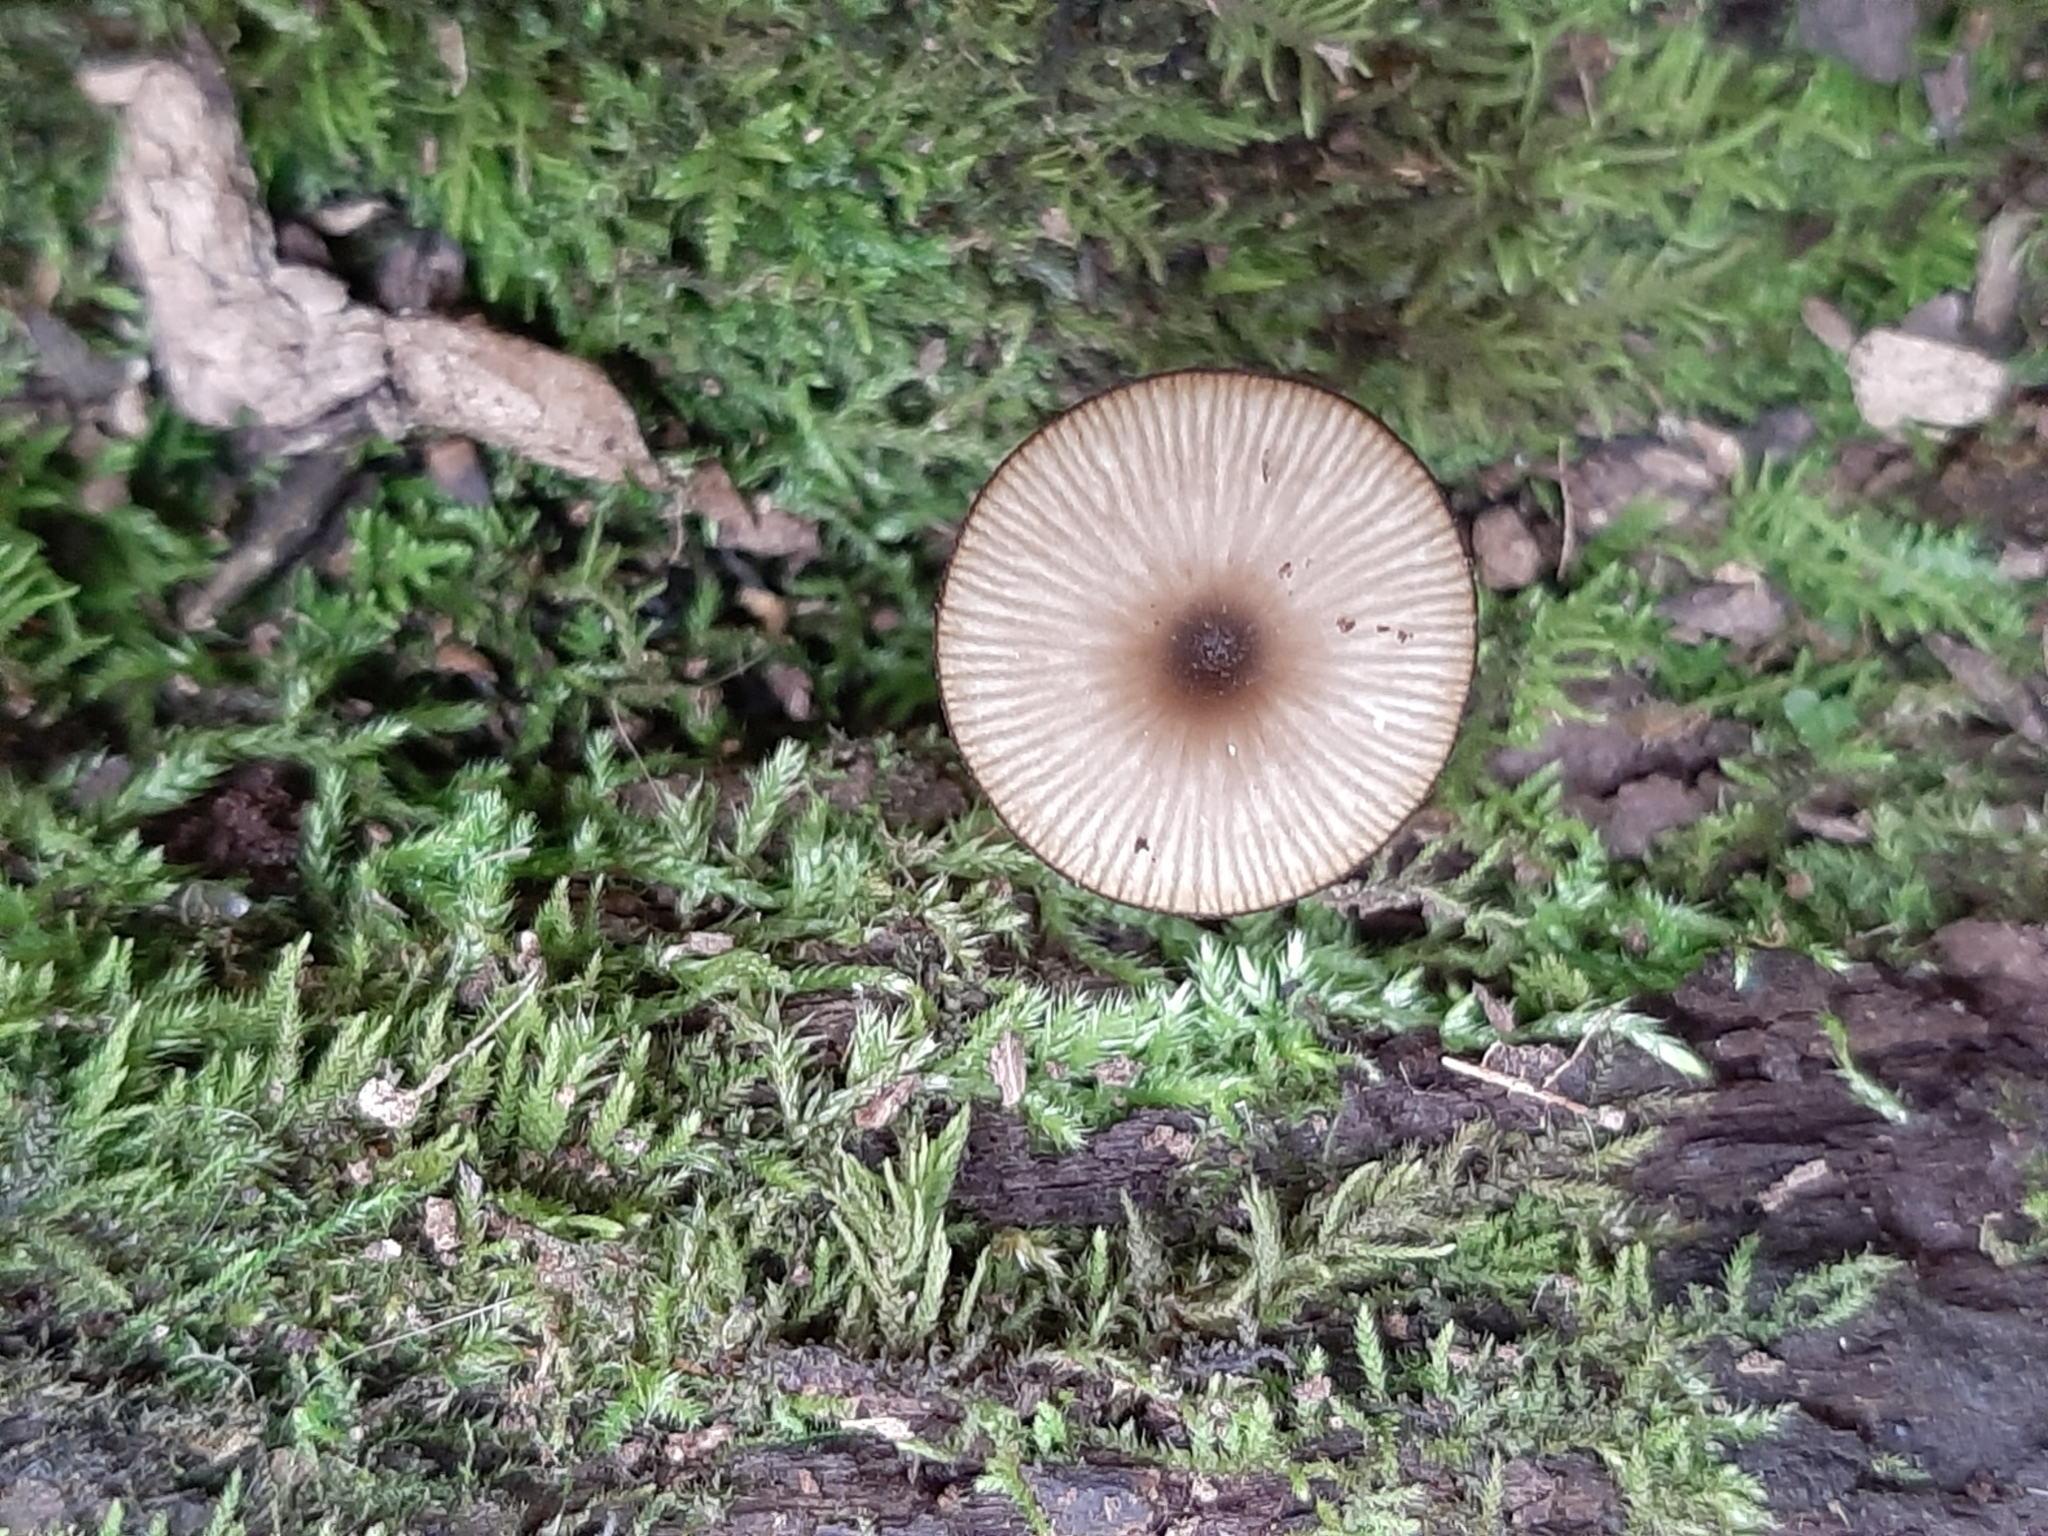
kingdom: Fungi
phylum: Basidiomycota
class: Agaricomycetes
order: Agaricales
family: Hygrophoraceae
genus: Arrhenia
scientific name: Arrhenia epichysium
